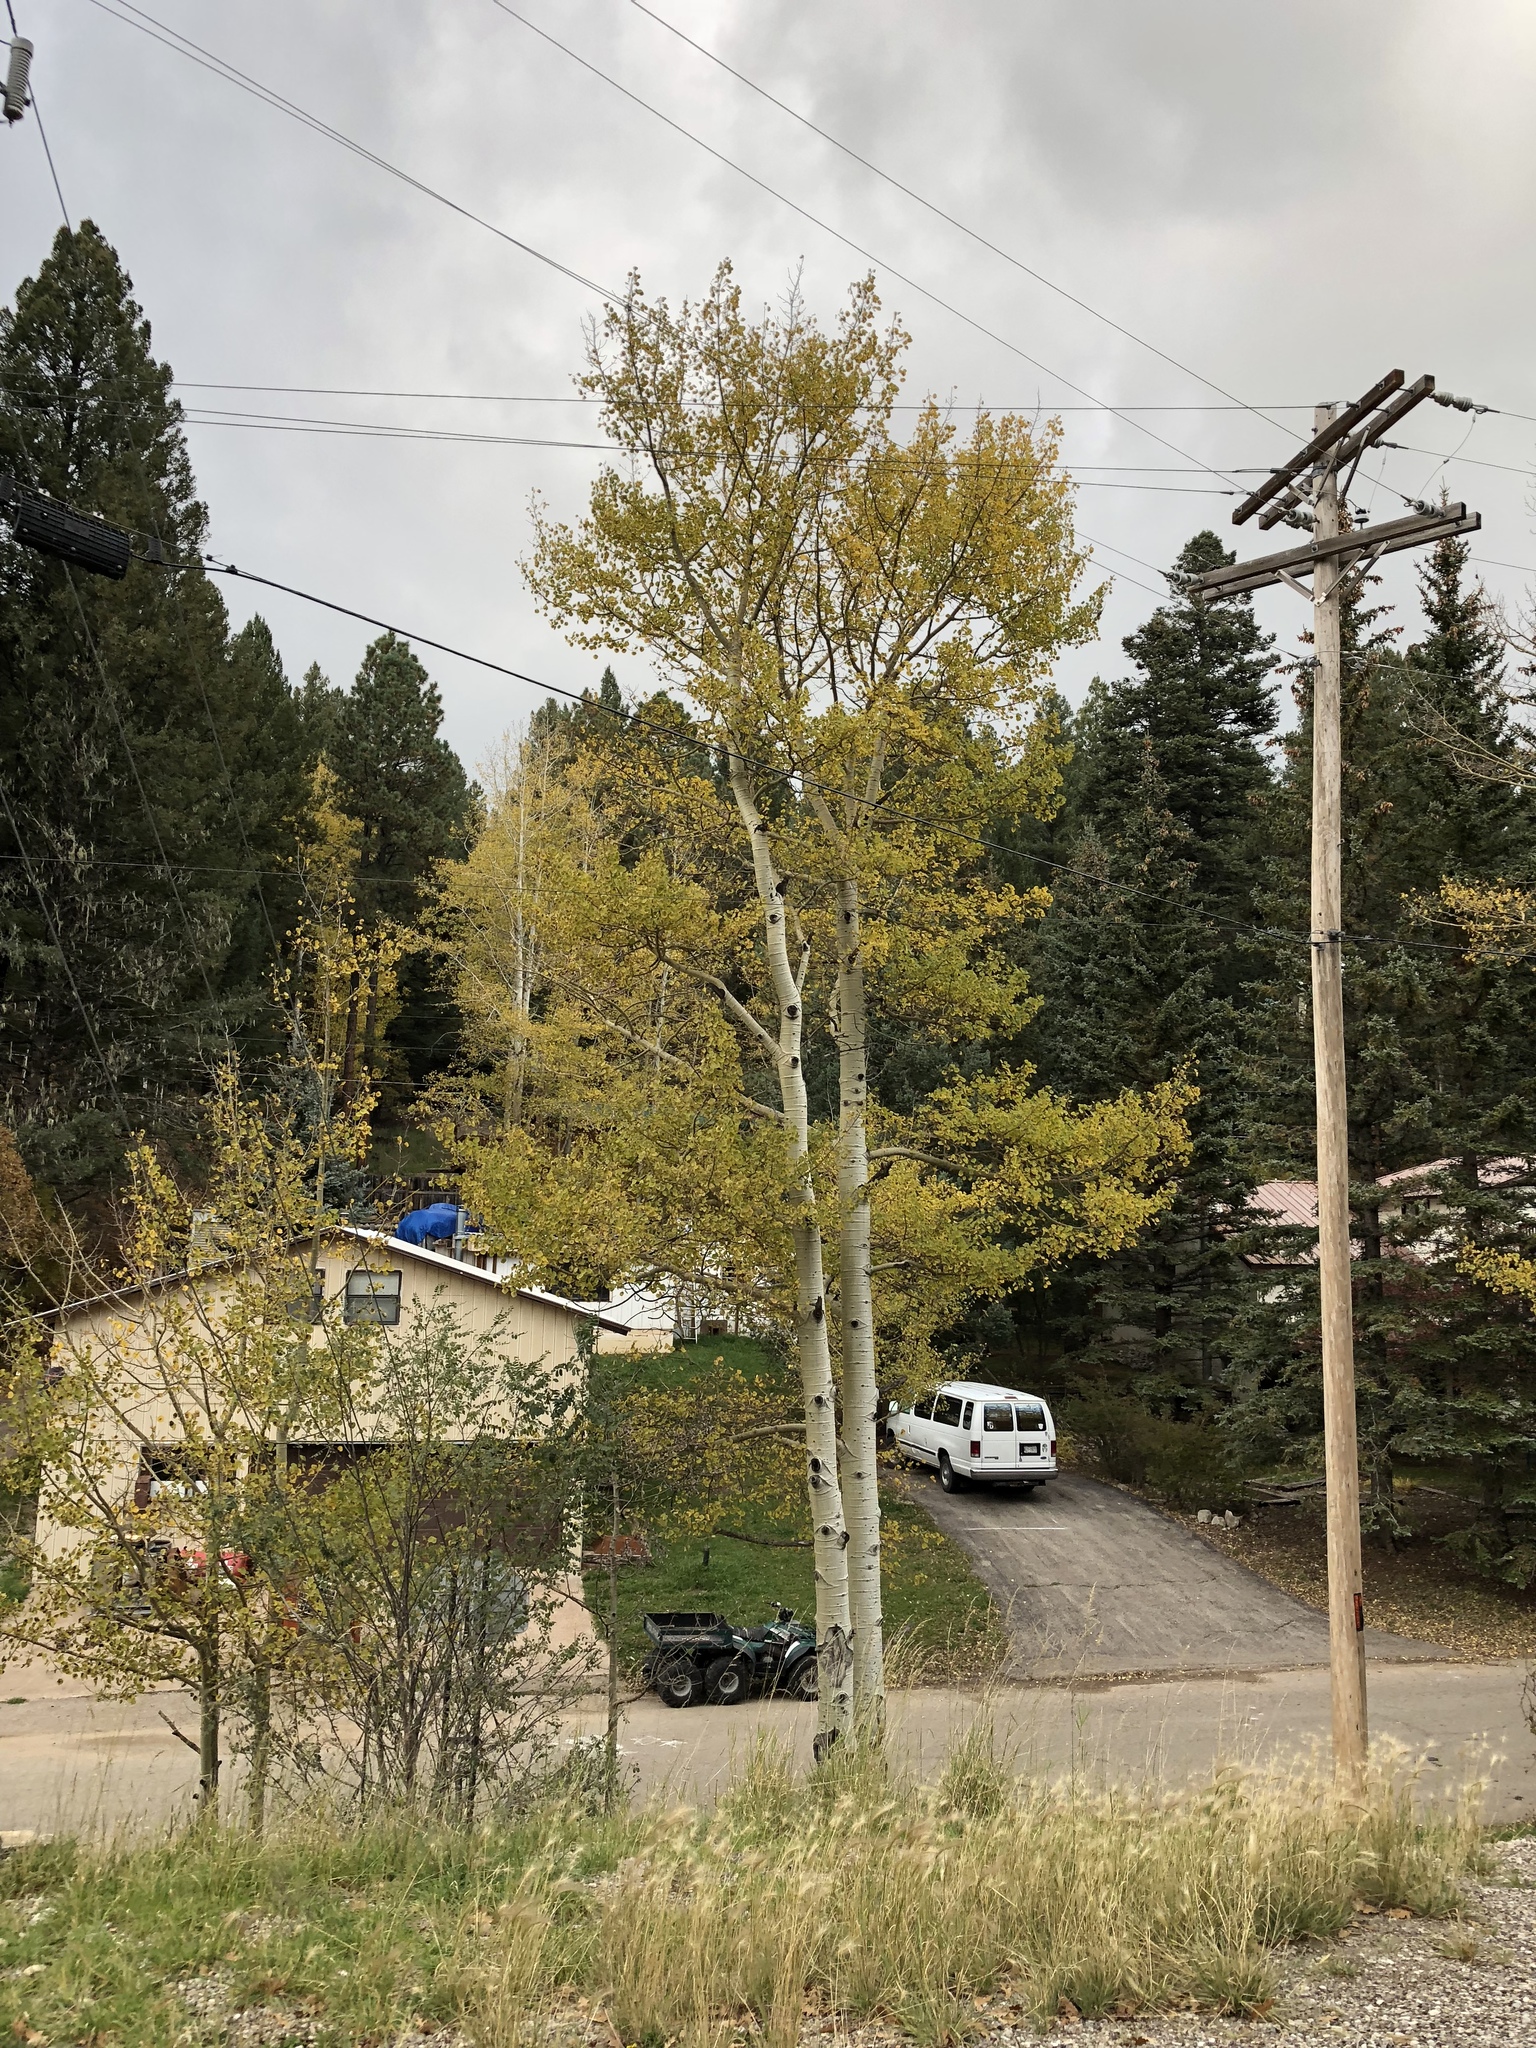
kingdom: Plantae
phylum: Tracheophyta
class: Magnoliopsida
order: Malpighiales
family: Salicaceae
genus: Populus
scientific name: Populus tremuloides
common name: Quaking aspen
